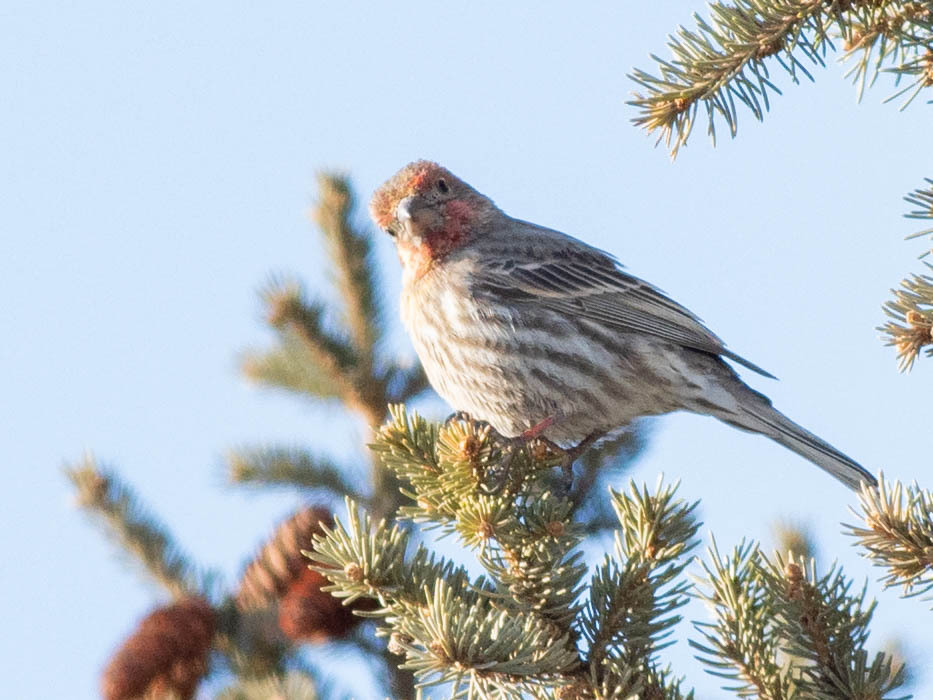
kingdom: Animalia
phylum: Chordata
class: Aves
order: Passeriformes
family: Fringillidae
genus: Haemorhous
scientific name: Haemorhous mexicanus
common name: House finch
